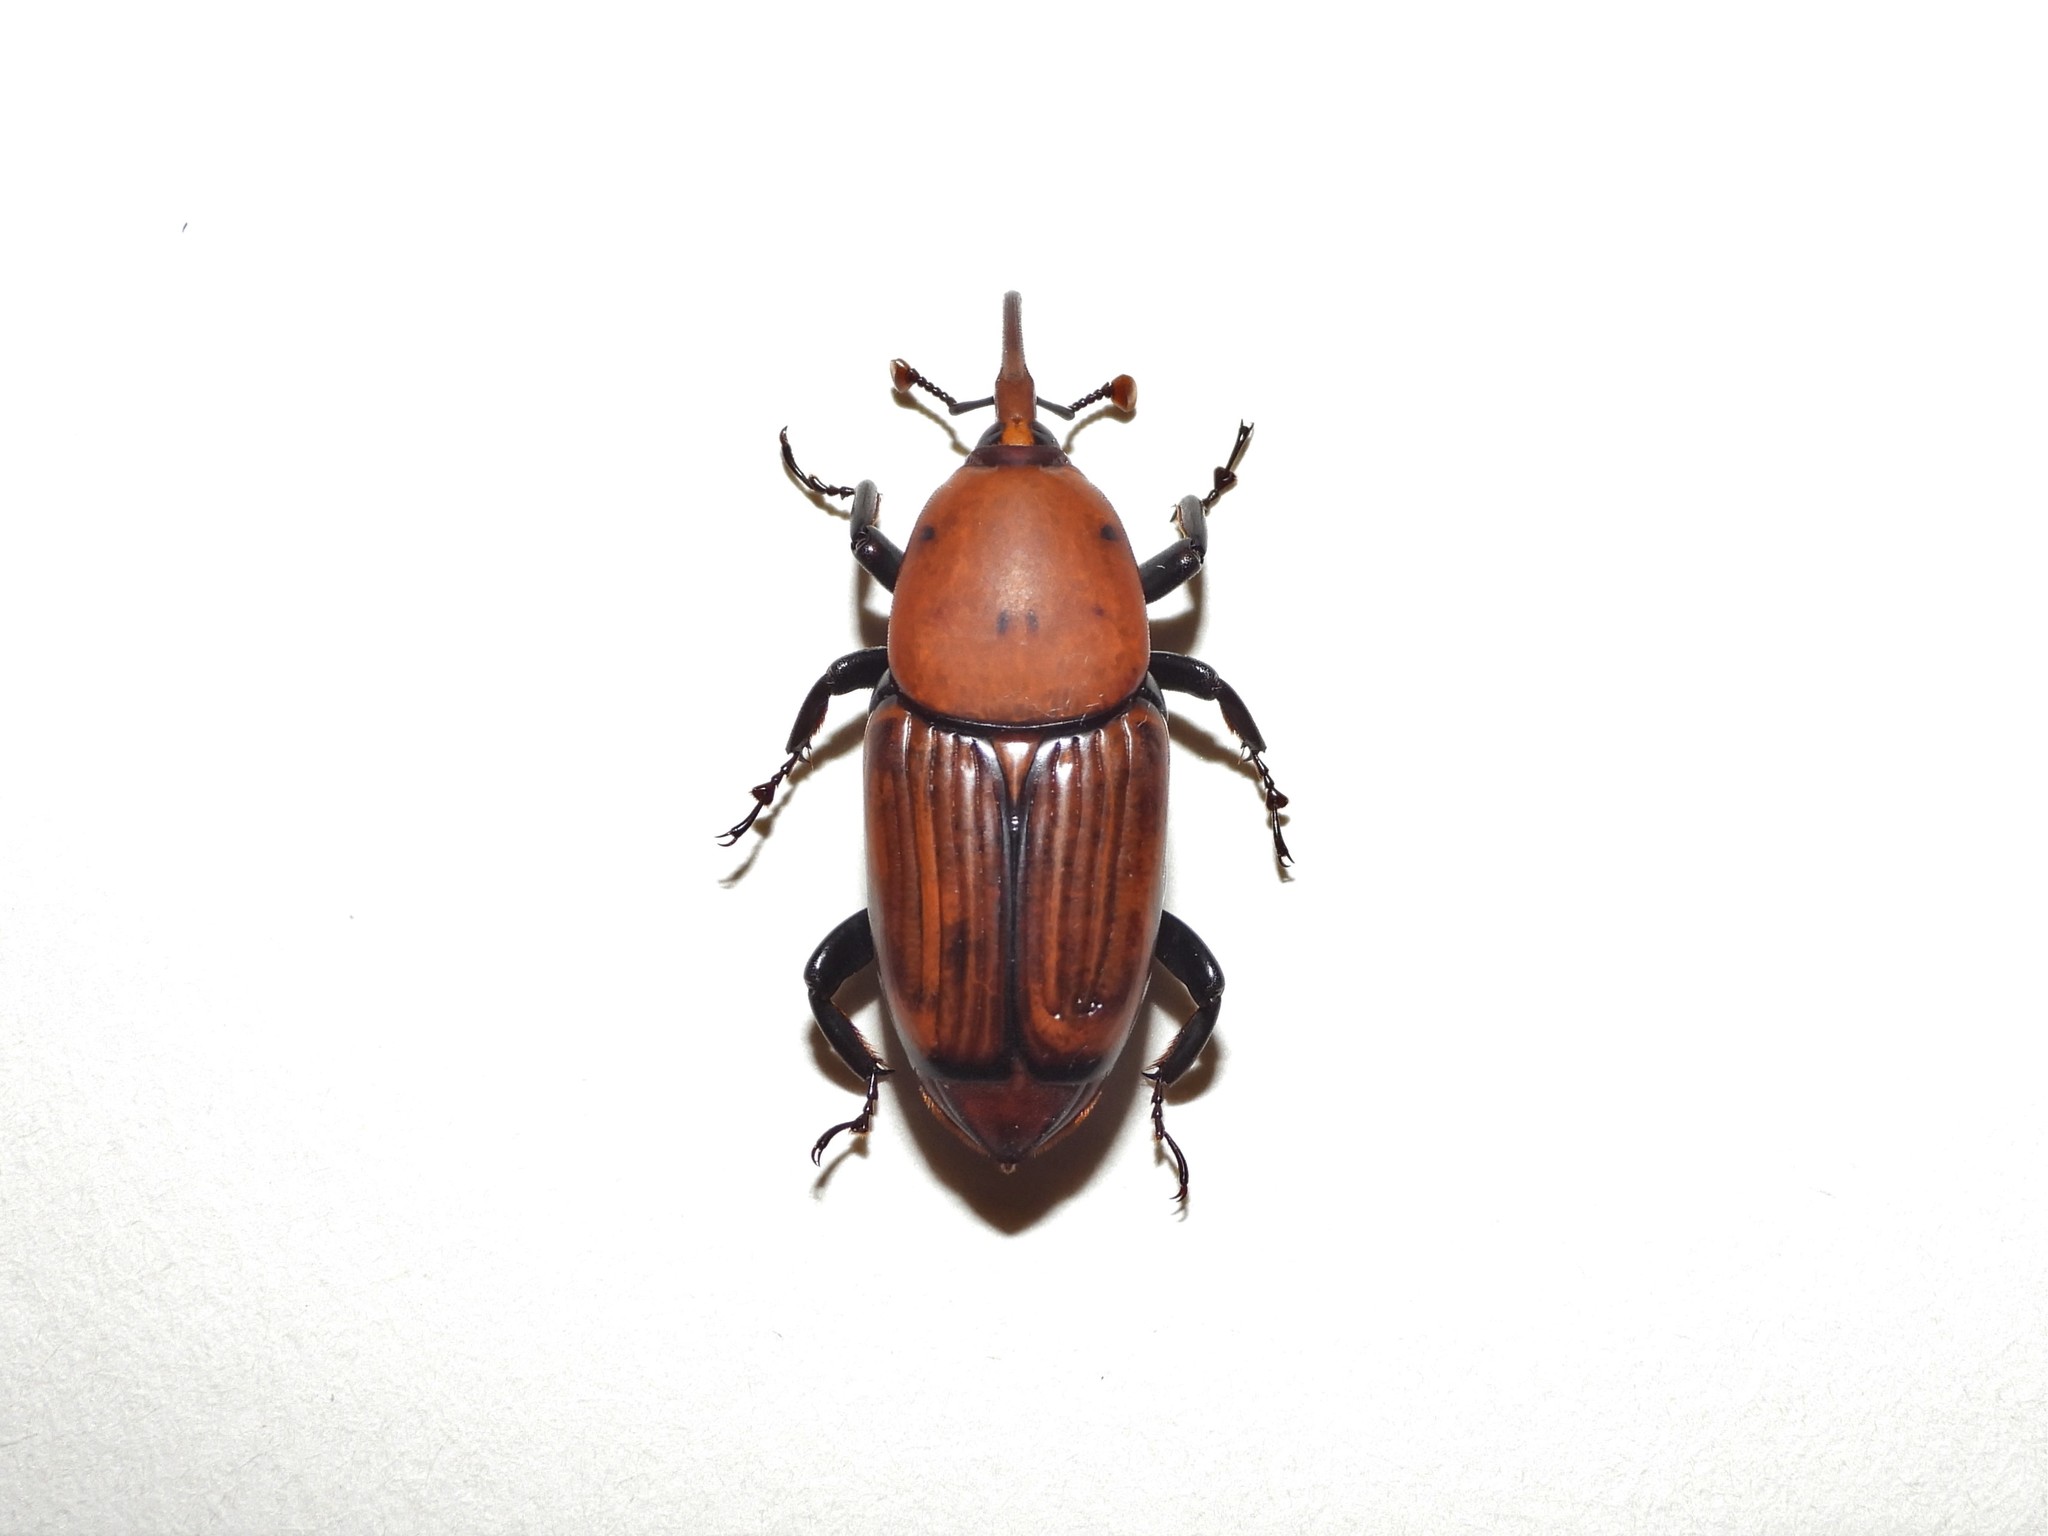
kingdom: Animalia
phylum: Arthropoda
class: Insecta
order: Coleoptera
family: Dryophthoridae
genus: Rhynchophorus
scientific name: Rhynchophorus ferrugineus
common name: Red palm weevil
